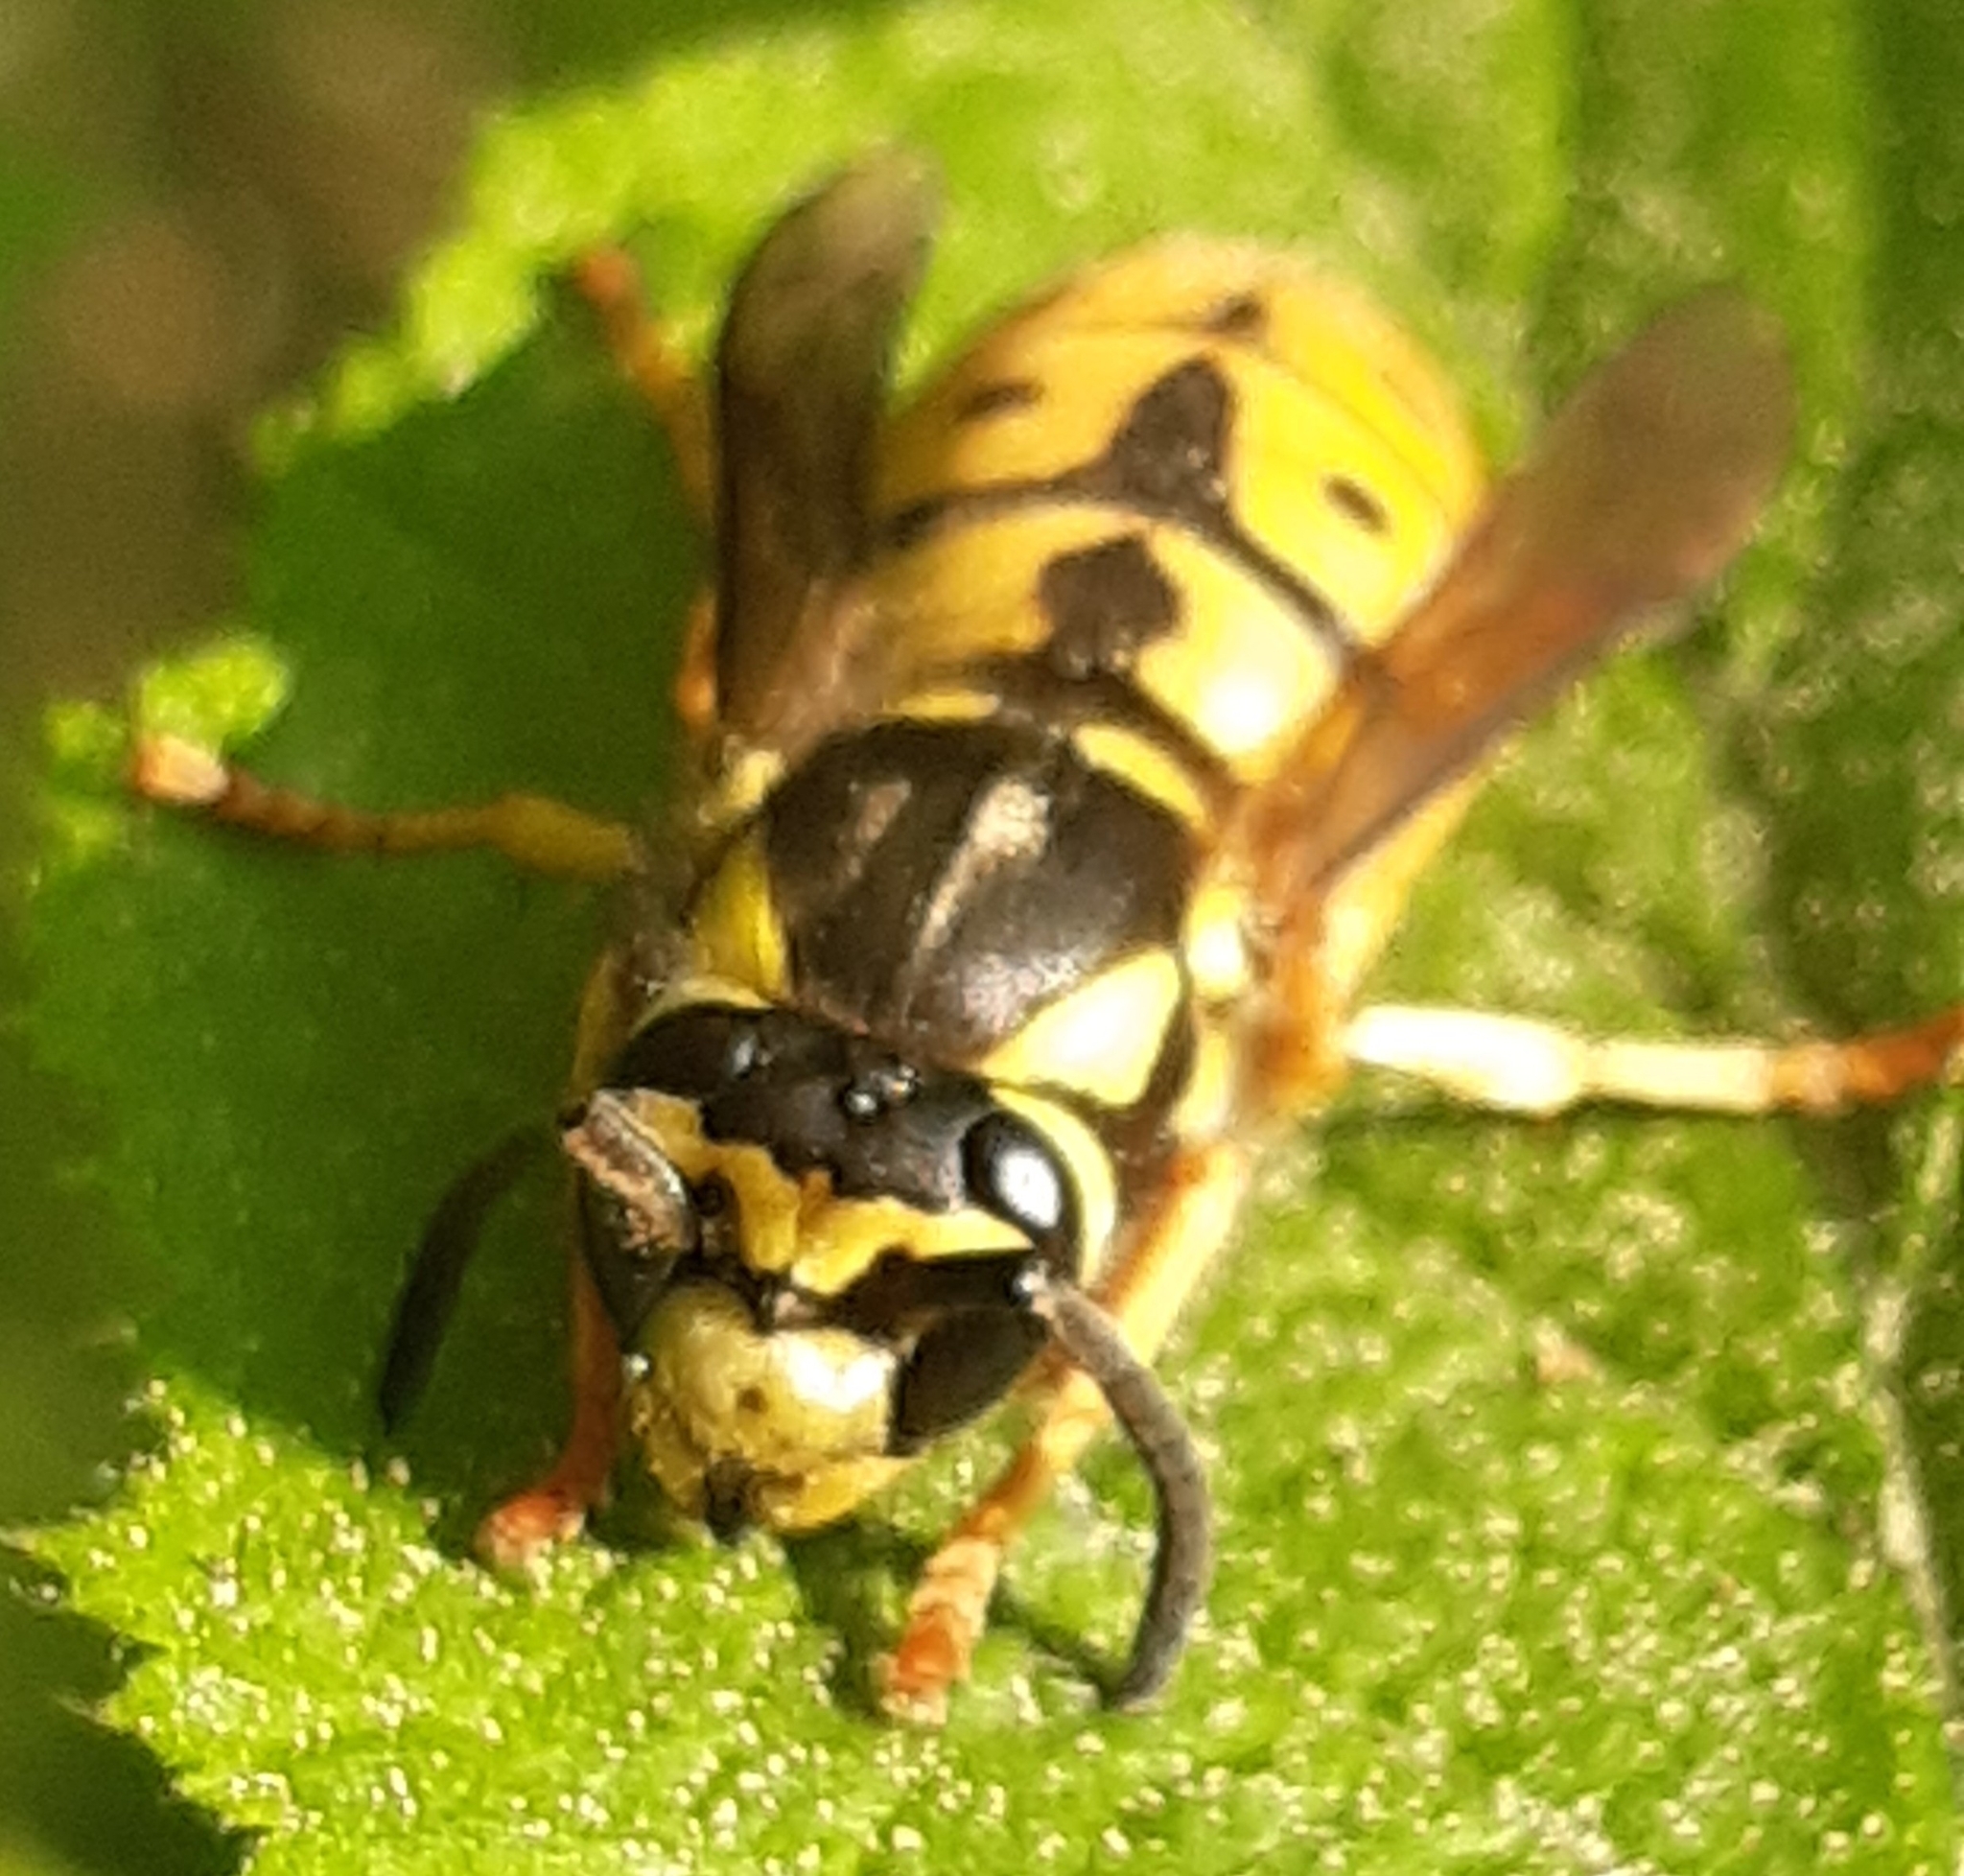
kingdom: Animalia
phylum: Arthropoda
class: Insecta
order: Hymenoptera
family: Vespidae
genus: Vespula
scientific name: Vespula germanica
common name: German wasp
